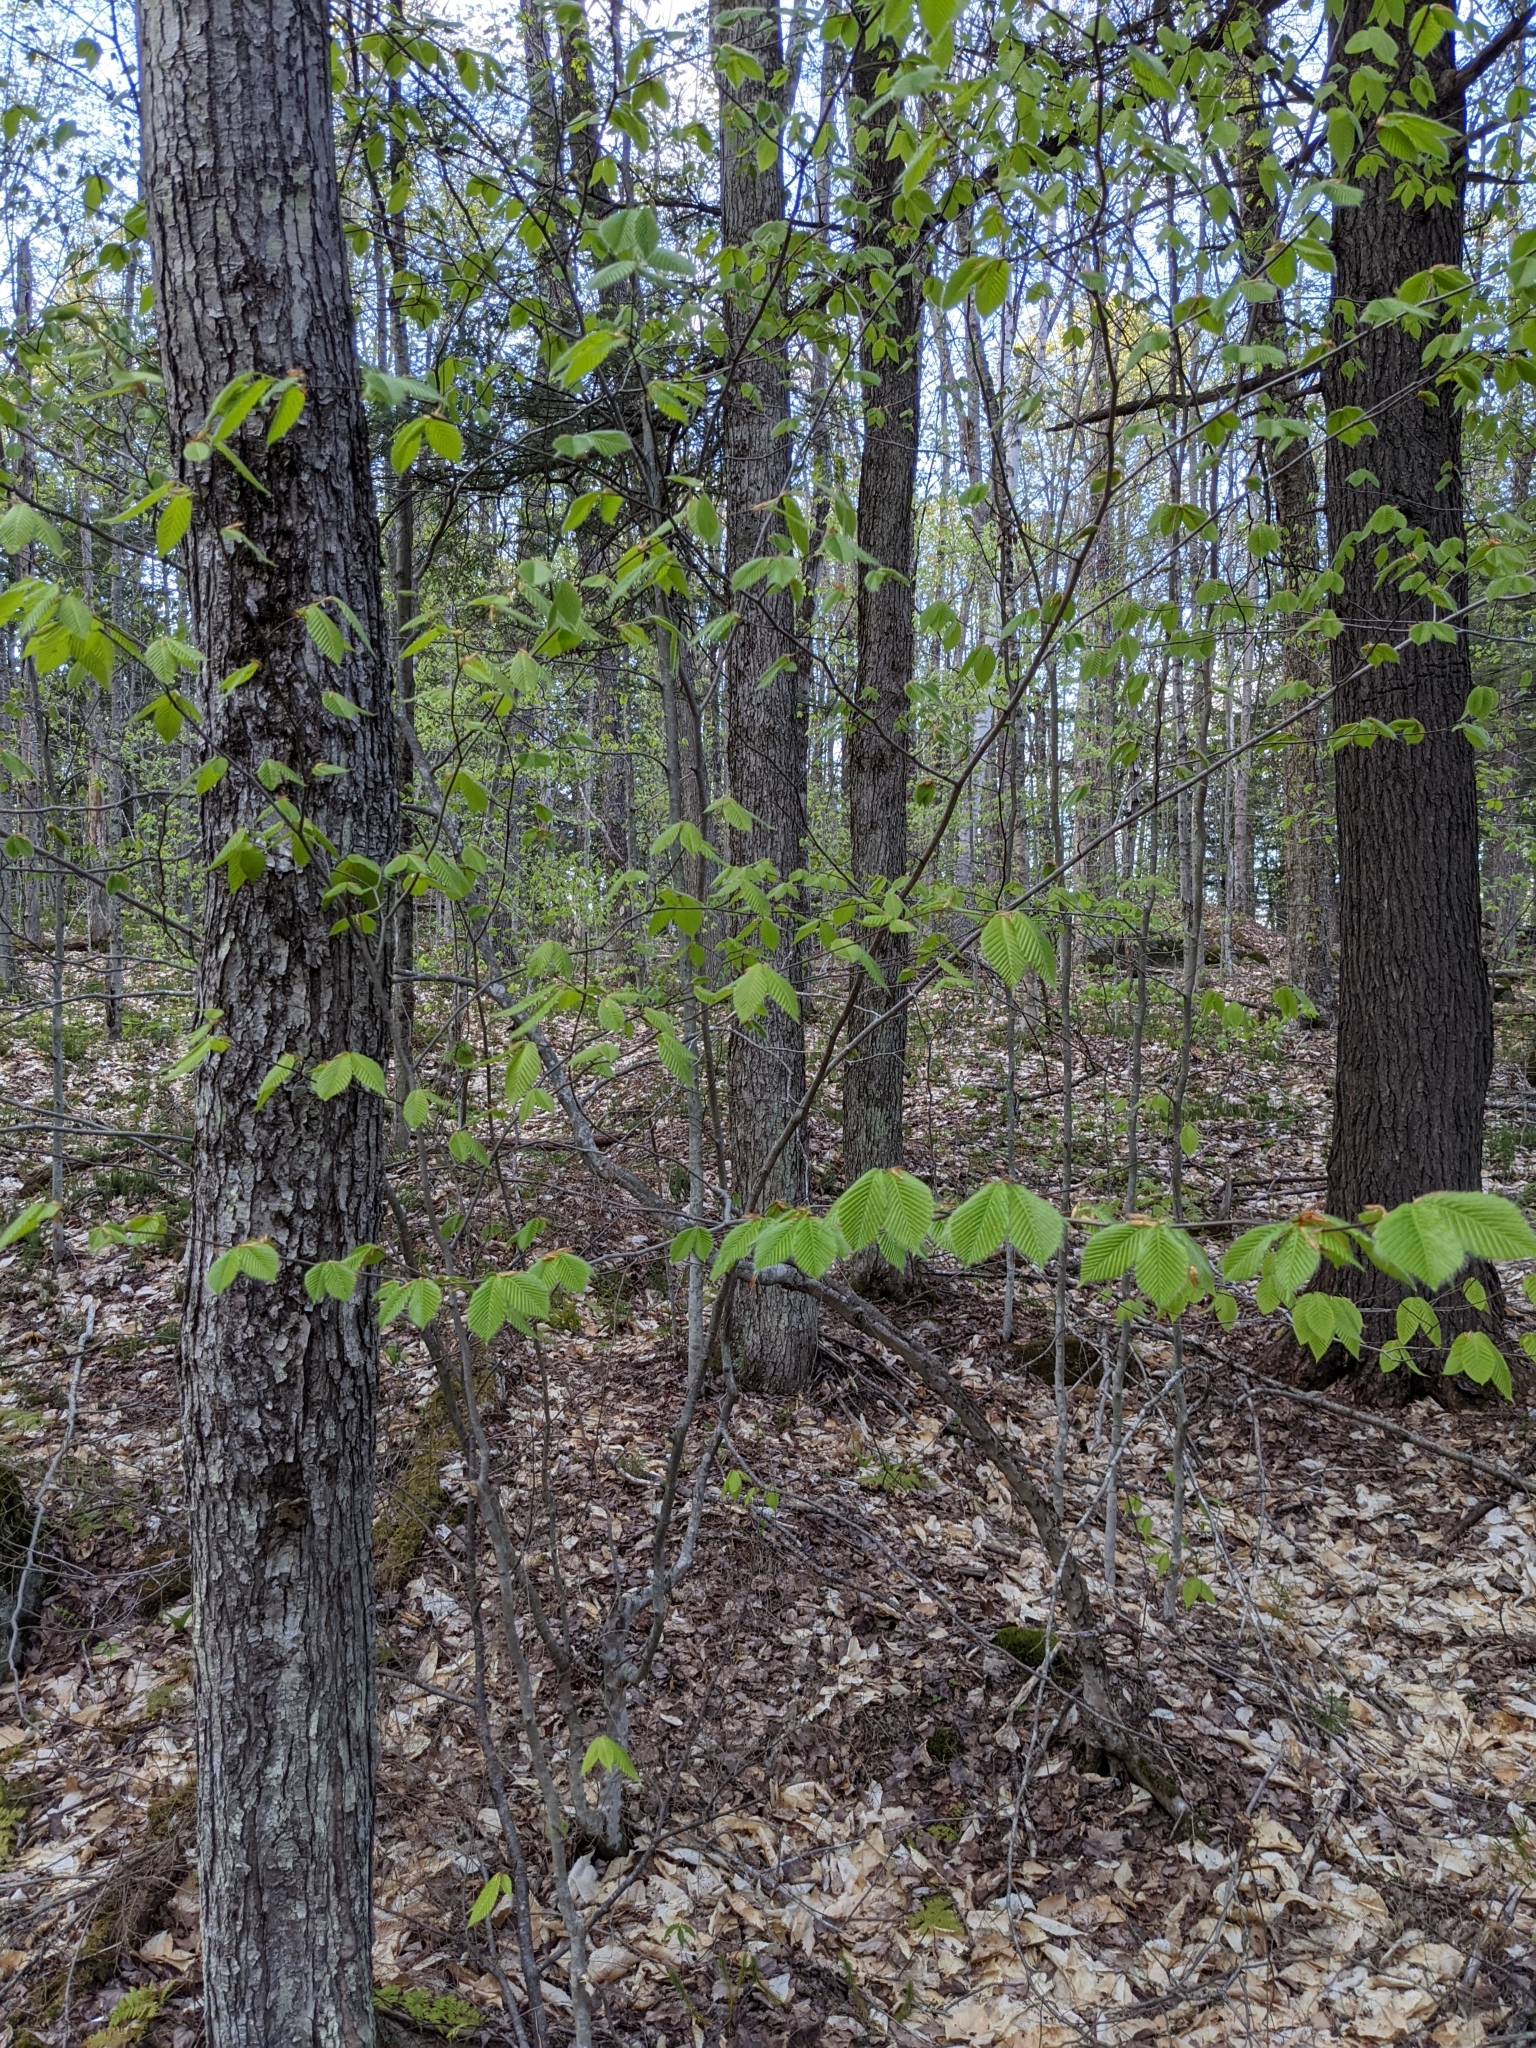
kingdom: Plantae
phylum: Tracheophyta
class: Magnoliopsida
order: Fagales
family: Fagaceae
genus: Fagus
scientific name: Fagus grandifolia
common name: American beech
